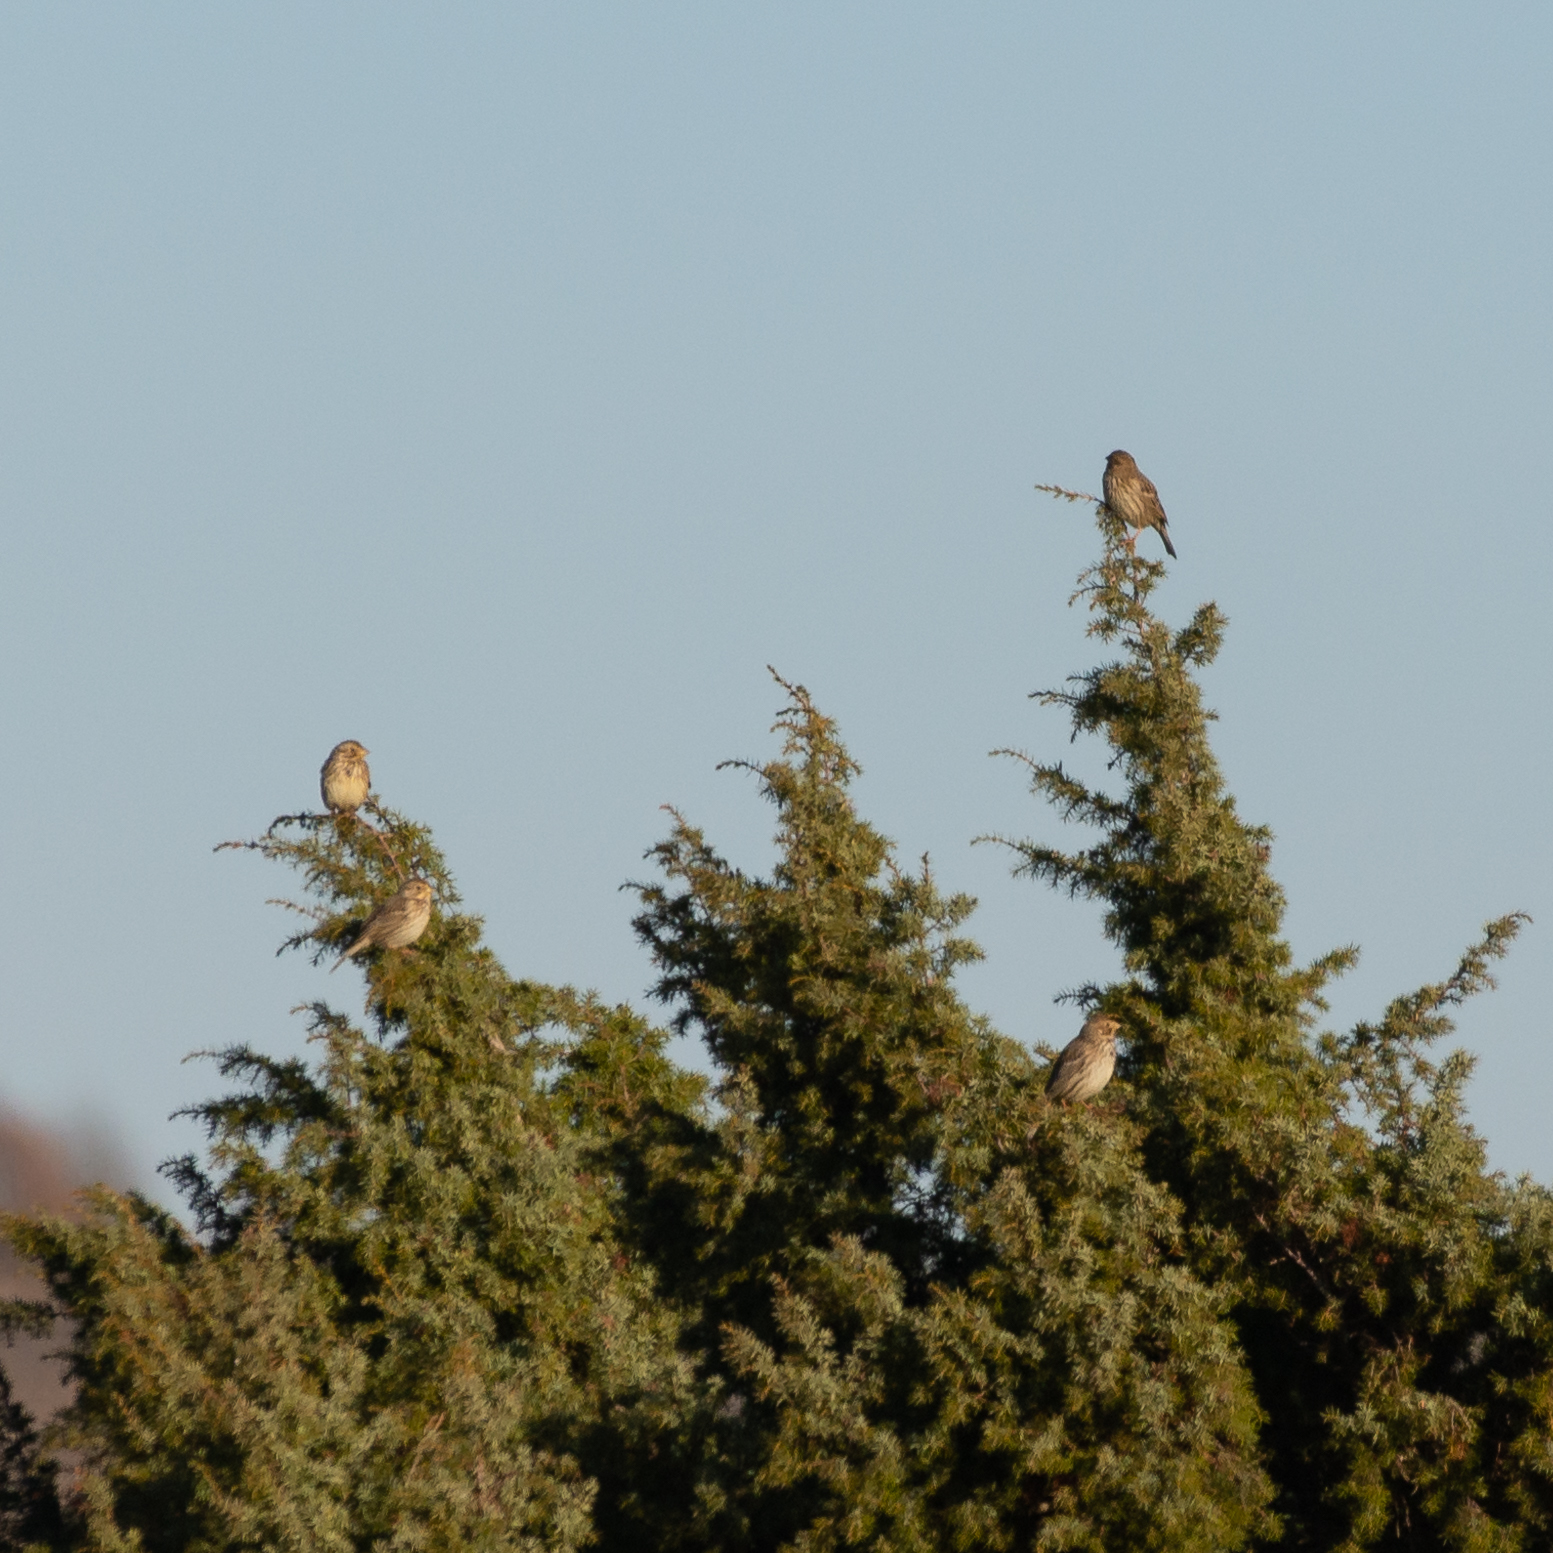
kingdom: Animalia
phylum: Chordata
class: Aves
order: Passeriformes
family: Emberizidae
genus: Emberiza
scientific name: Emberiza calandra
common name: Corn bunting
